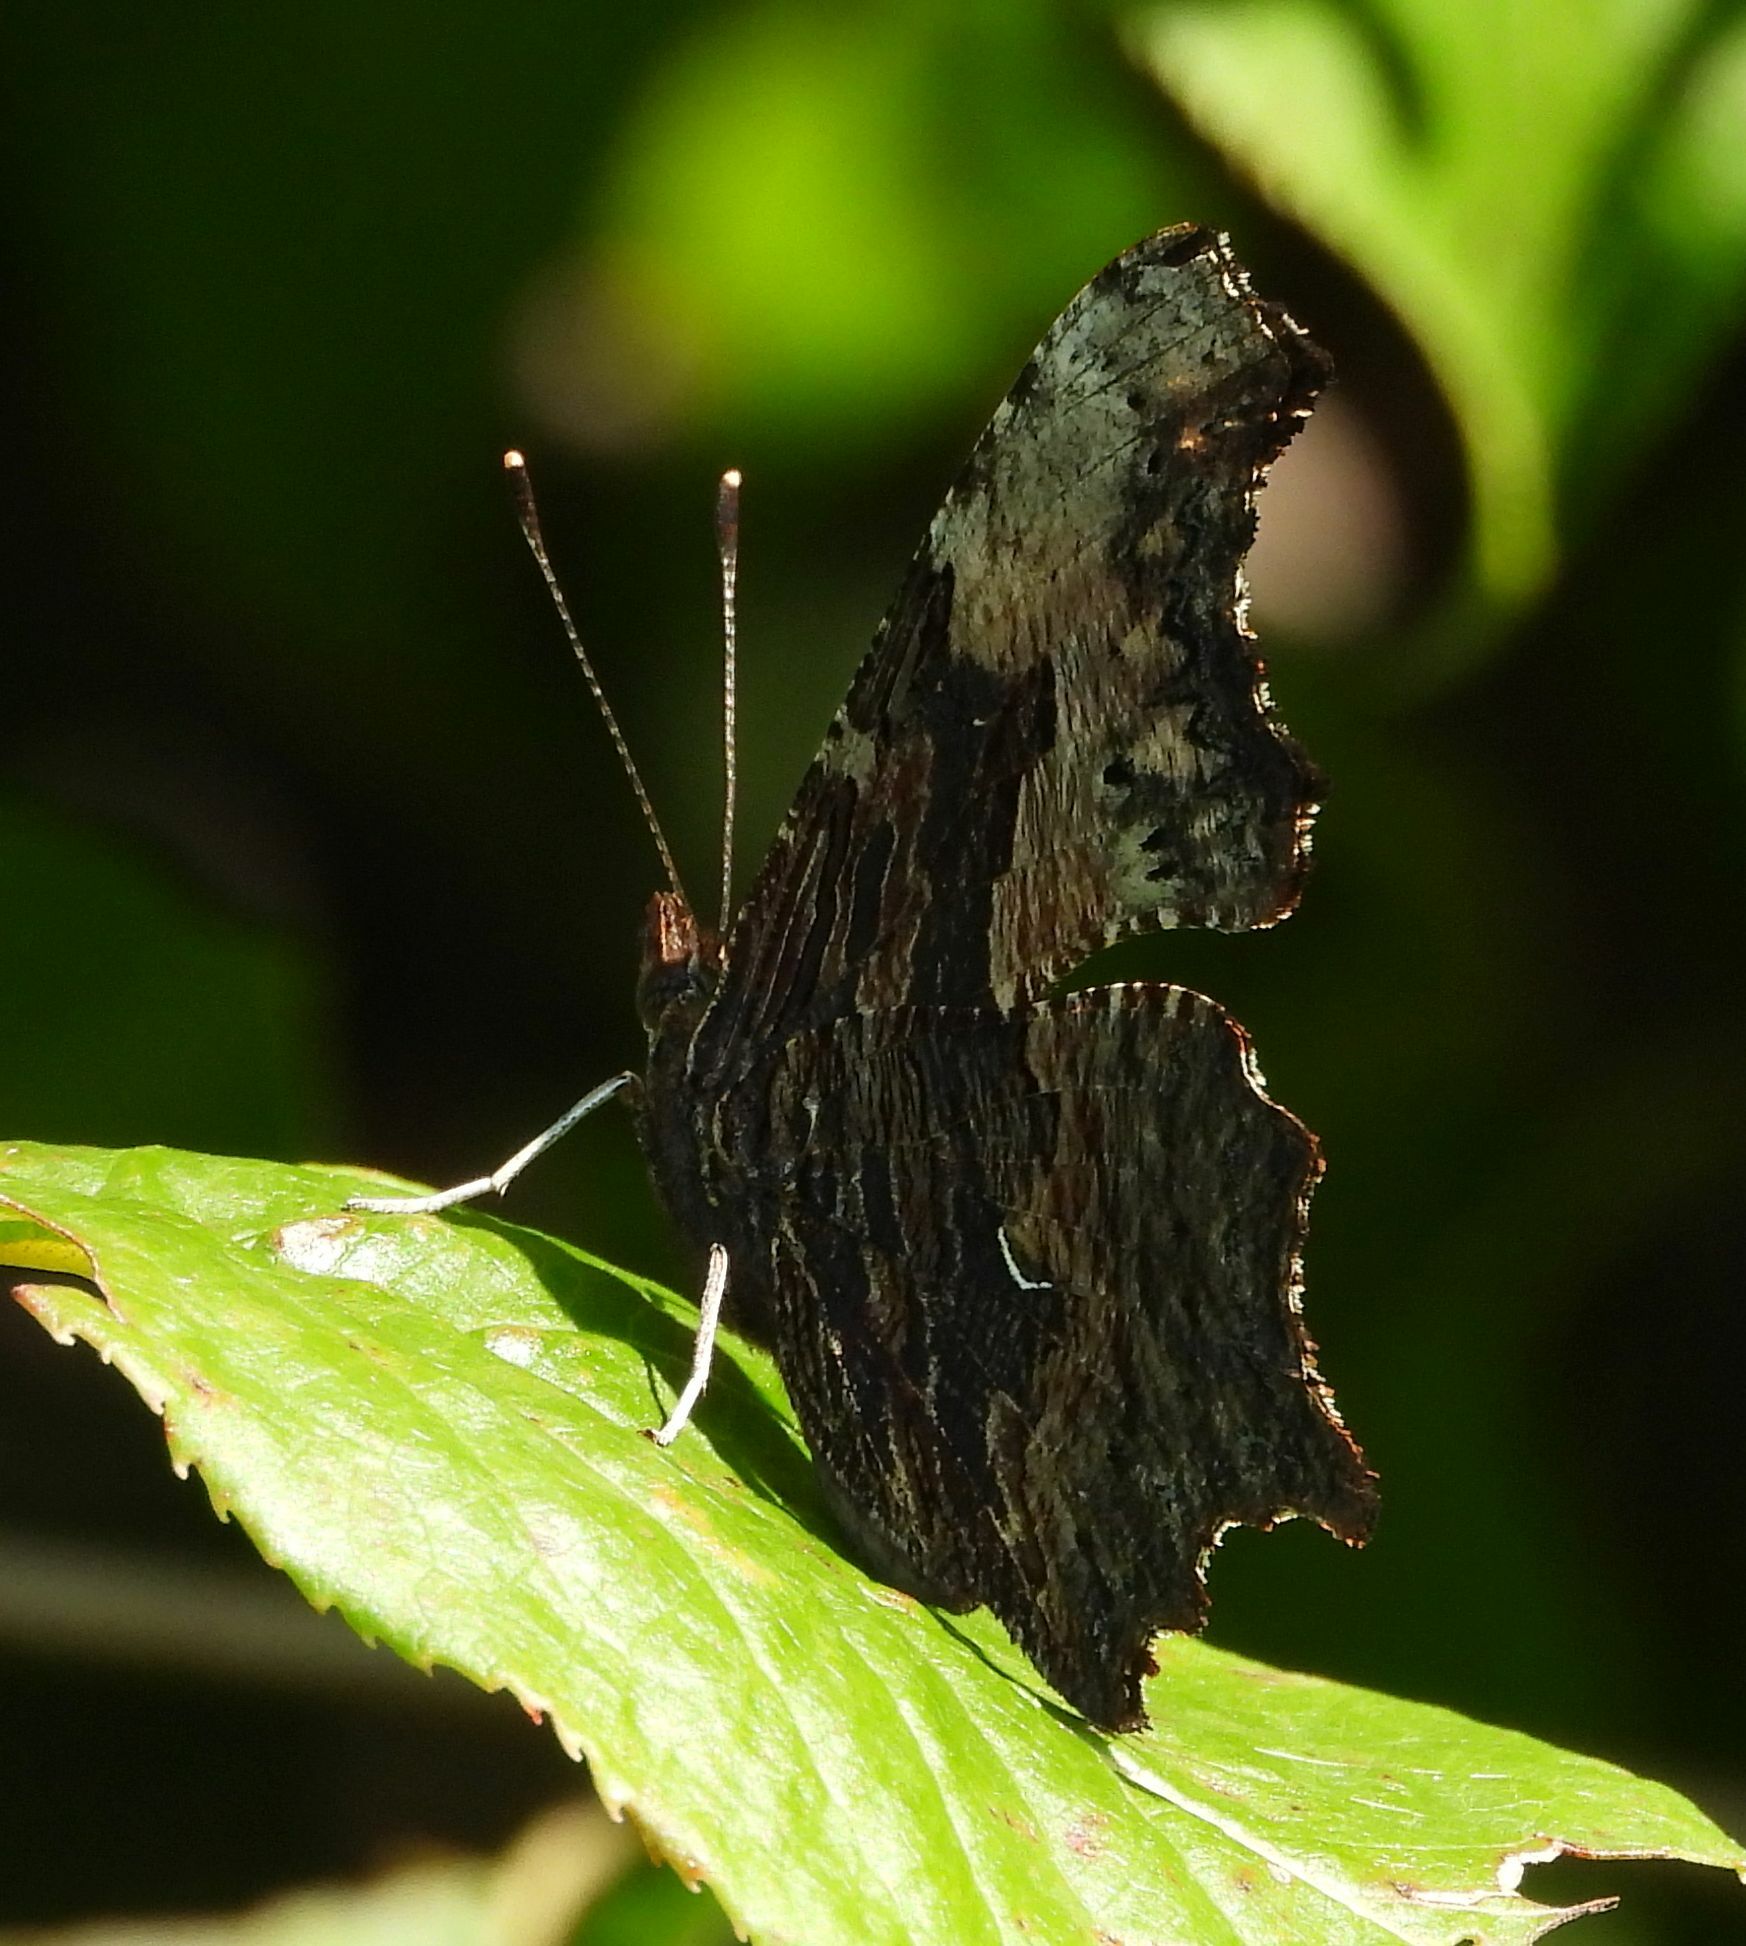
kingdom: Animalia
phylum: Arthropoda
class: Insecta
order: Lepidoptera
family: Nymphalidae
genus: Polygonia
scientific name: Polygonia progne
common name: Gray comma
